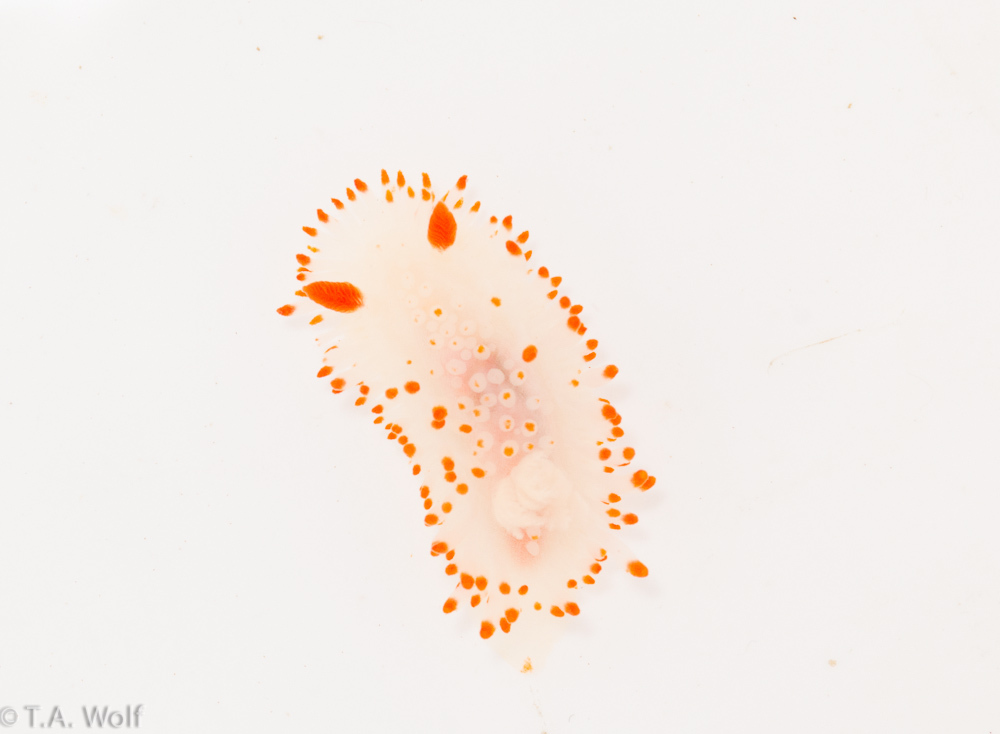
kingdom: Animalia
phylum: Mollusca
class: Gastropoda
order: Nudibranchia
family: Polyceridae
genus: Limacia
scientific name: Limacia cockerelli
